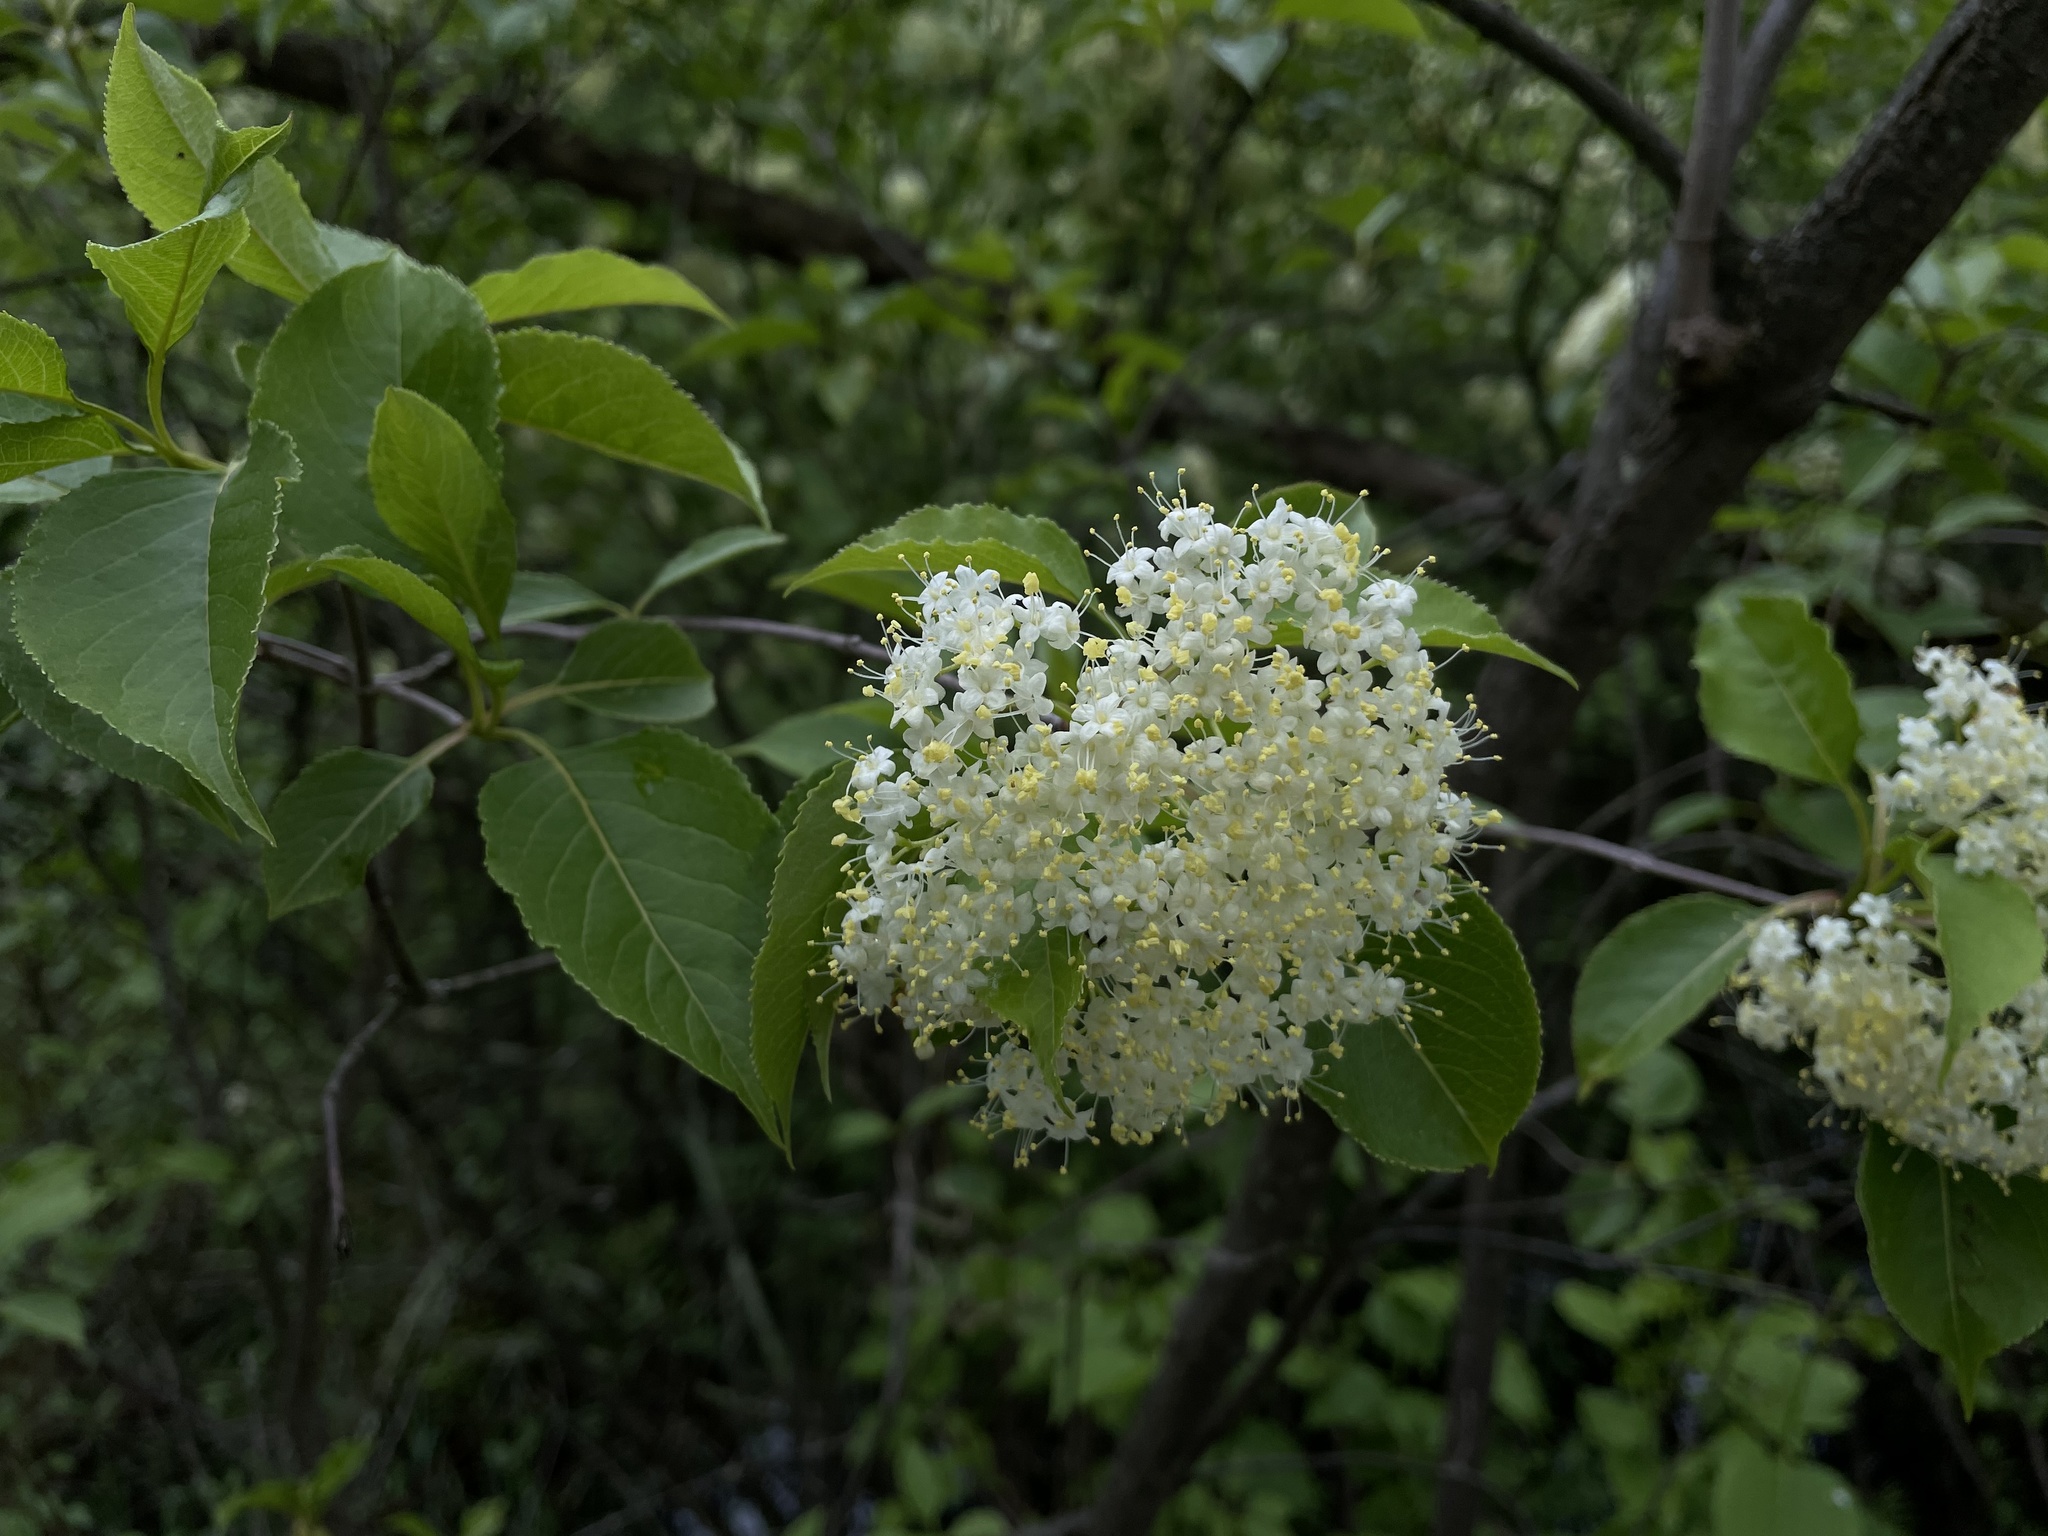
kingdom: Plantae
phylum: Tracheophyta
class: Magnoliopsida
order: Dipsacales
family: Viburnaceae
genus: Viburnum
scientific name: Viburnum lentago
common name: Black haw
